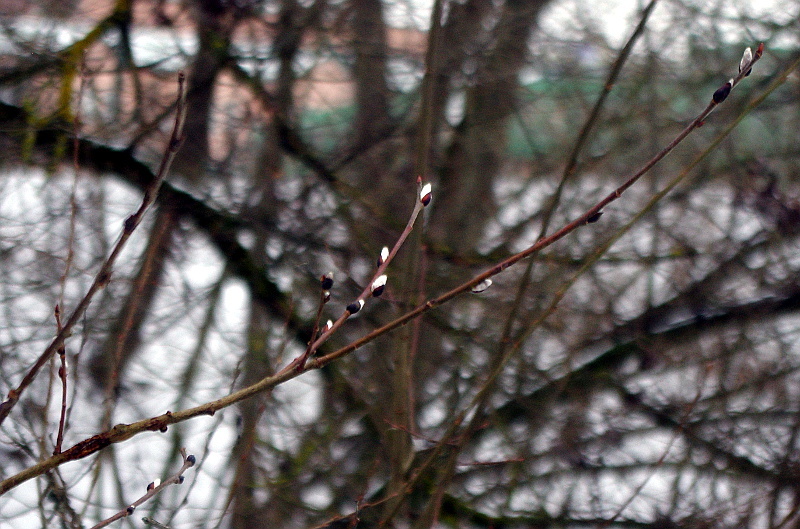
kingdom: Plantae
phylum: Tracheophyta
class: Magnoliopsida
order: Malpighiales
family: Salicaceae
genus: Salix
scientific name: Salix caprea
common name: Goat willow
